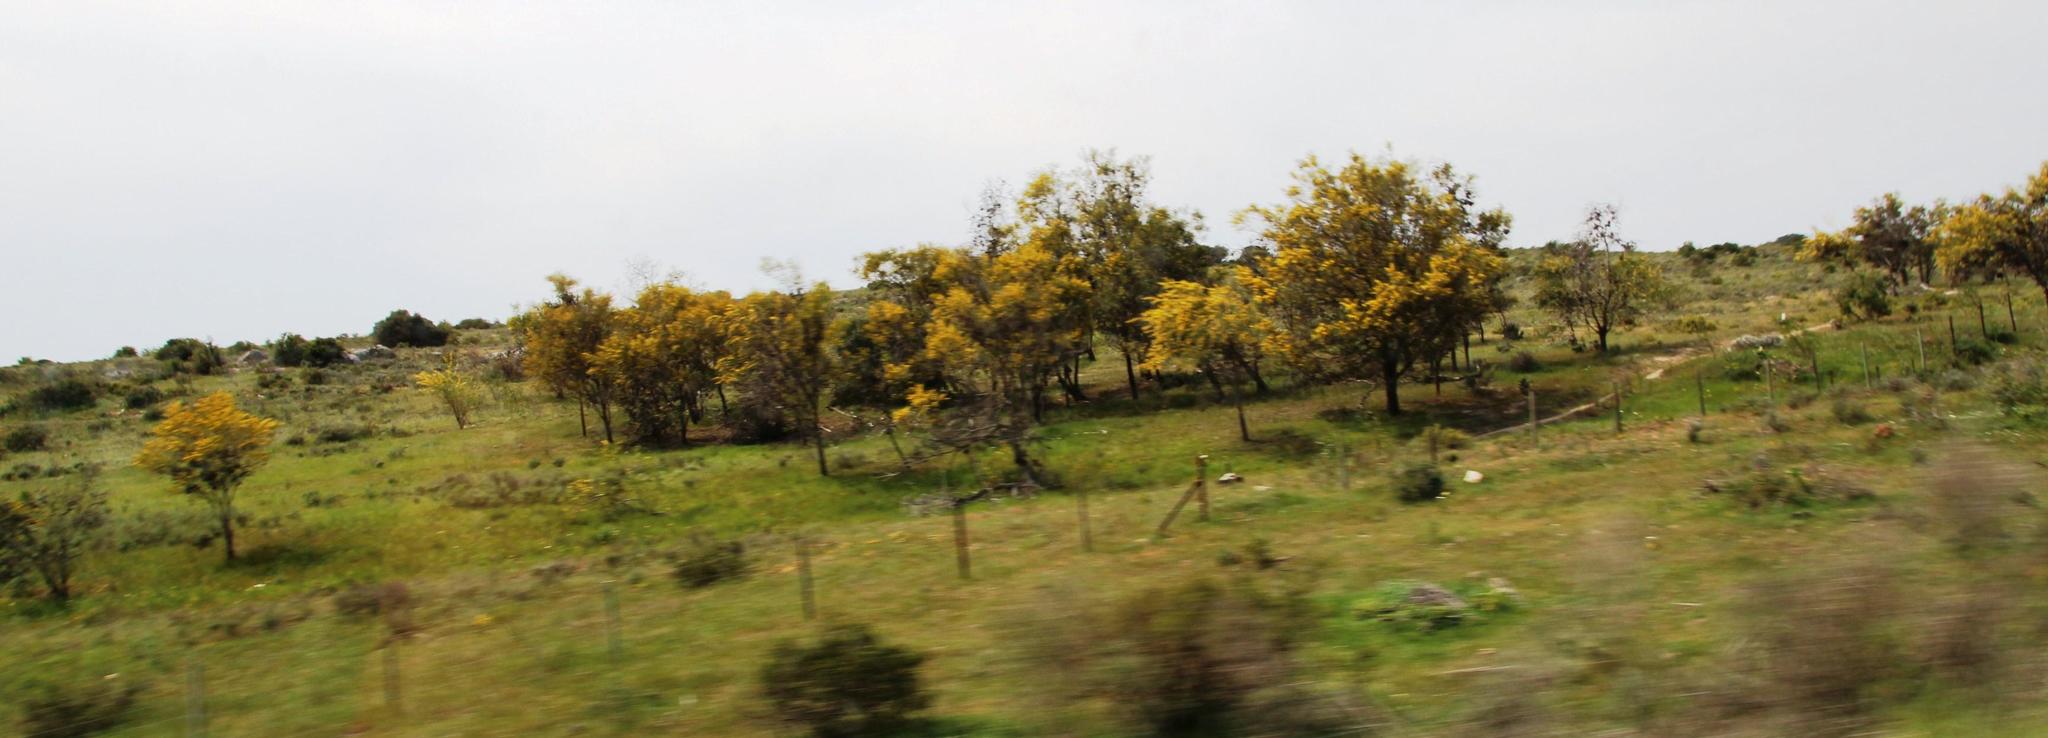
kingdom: Plantae
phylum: Tracheophyta
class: Magnoliopsida
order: Fabales
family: Fabaceae
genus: Acacia
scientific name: Acacia saligna
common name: Orange wattle
